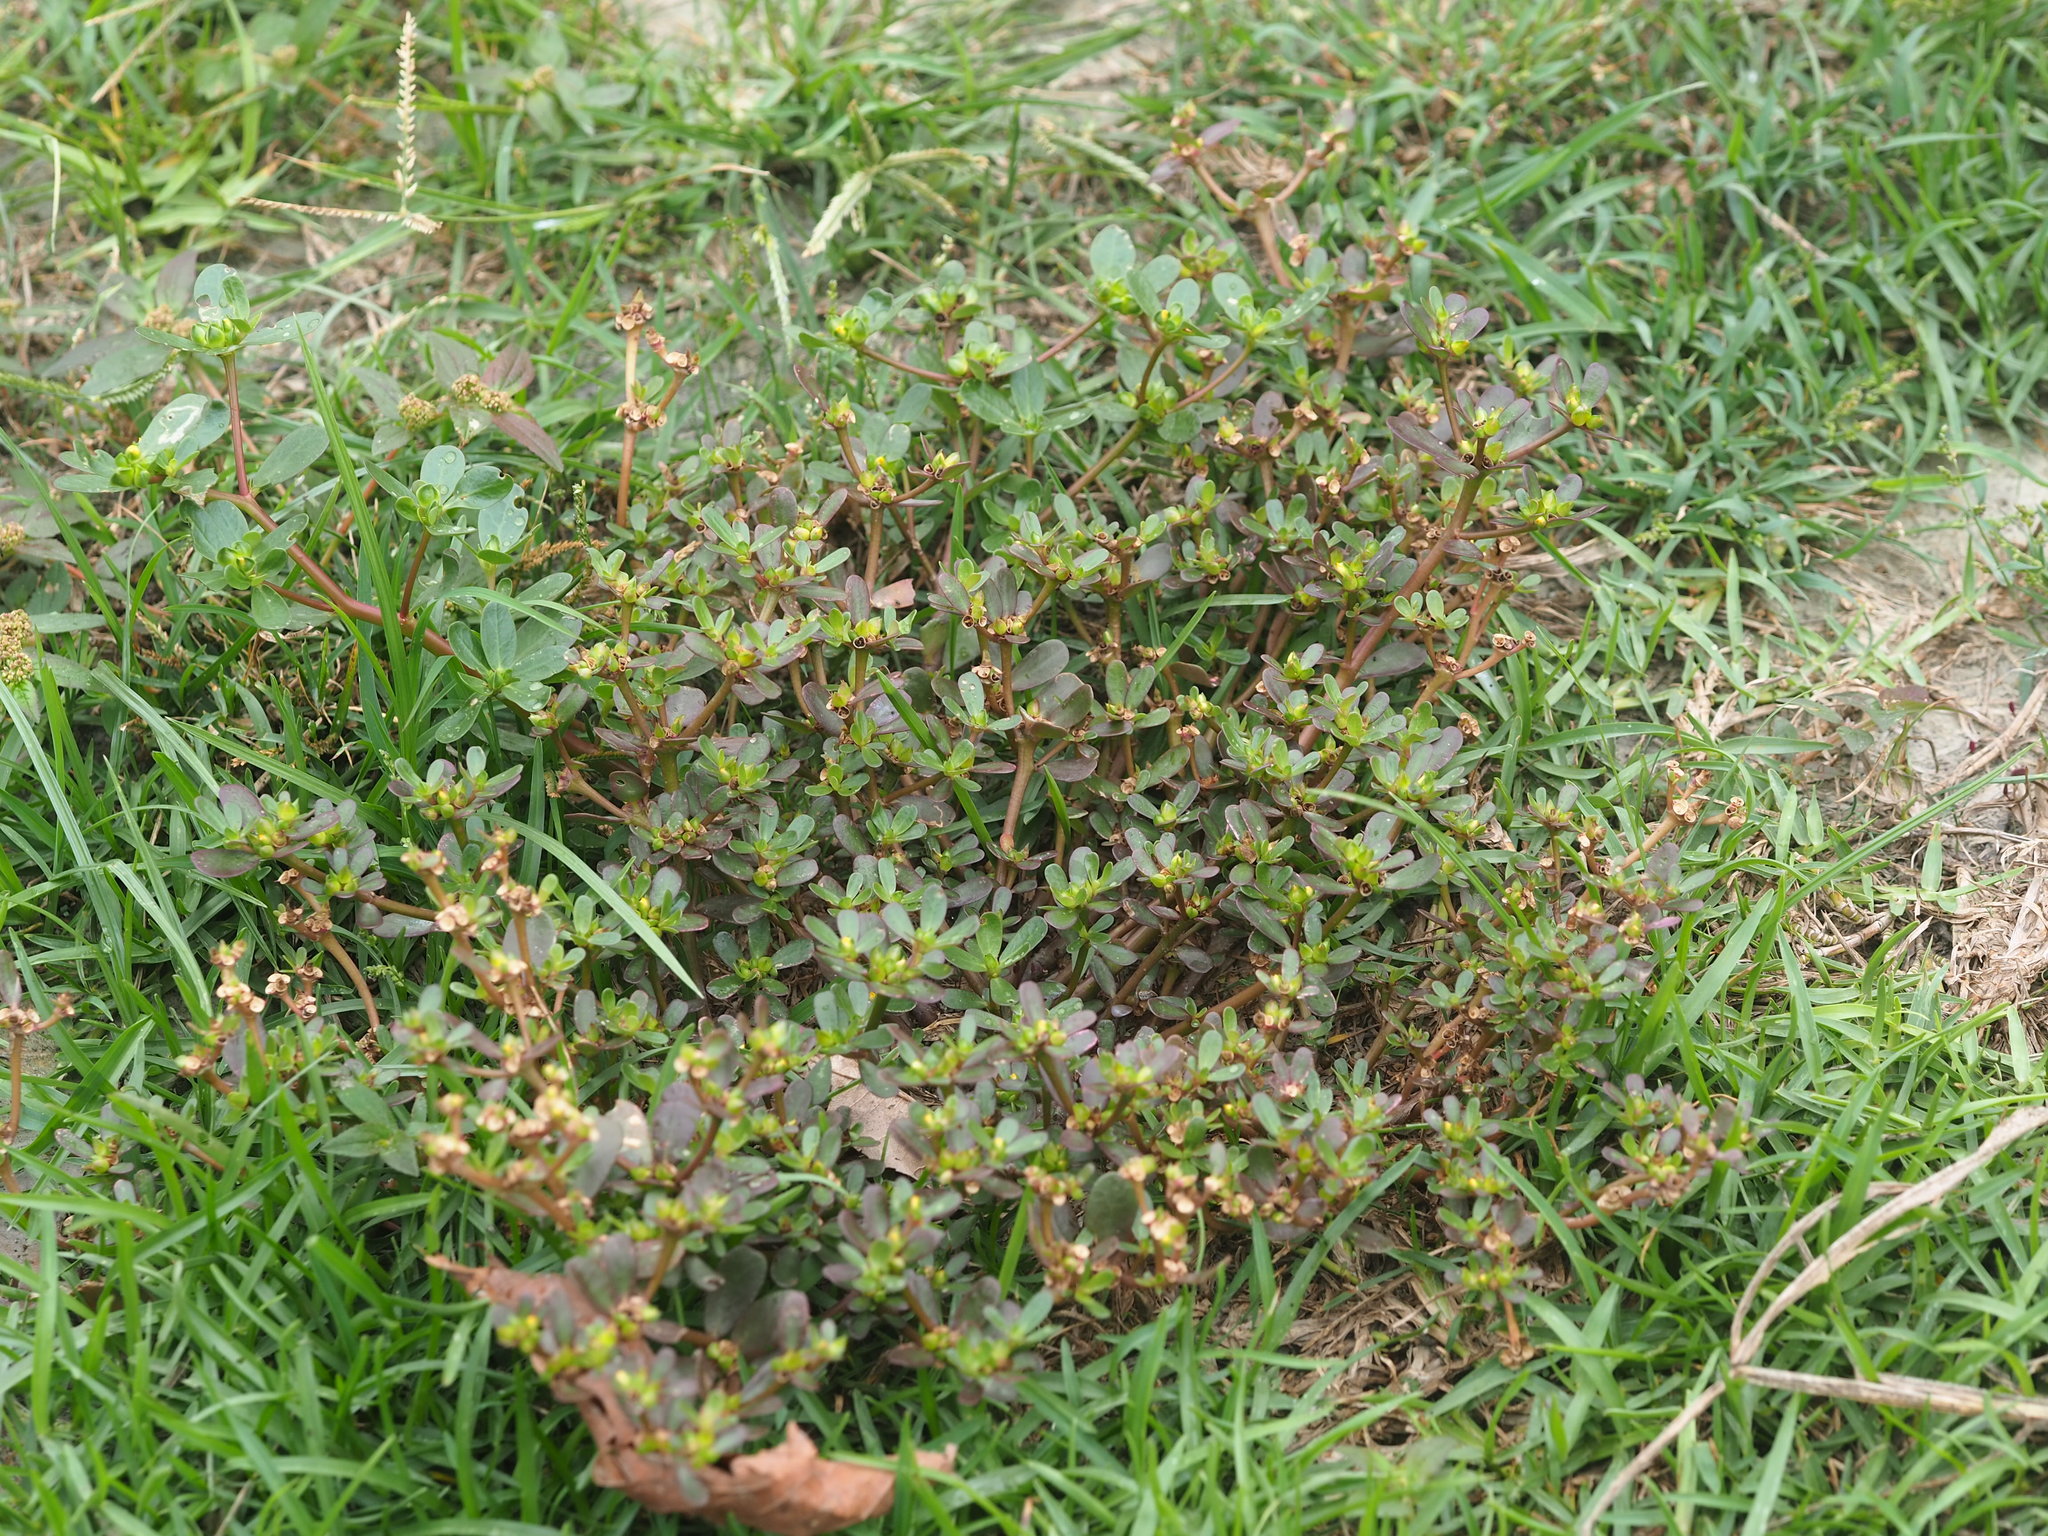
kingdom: Plantae
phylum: Tracheophyta
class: Magnoliopsida
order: Caryophyllales
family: Portulacaceae
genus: Portulaca
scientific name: Portulaca oleracea
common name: Common purslane
